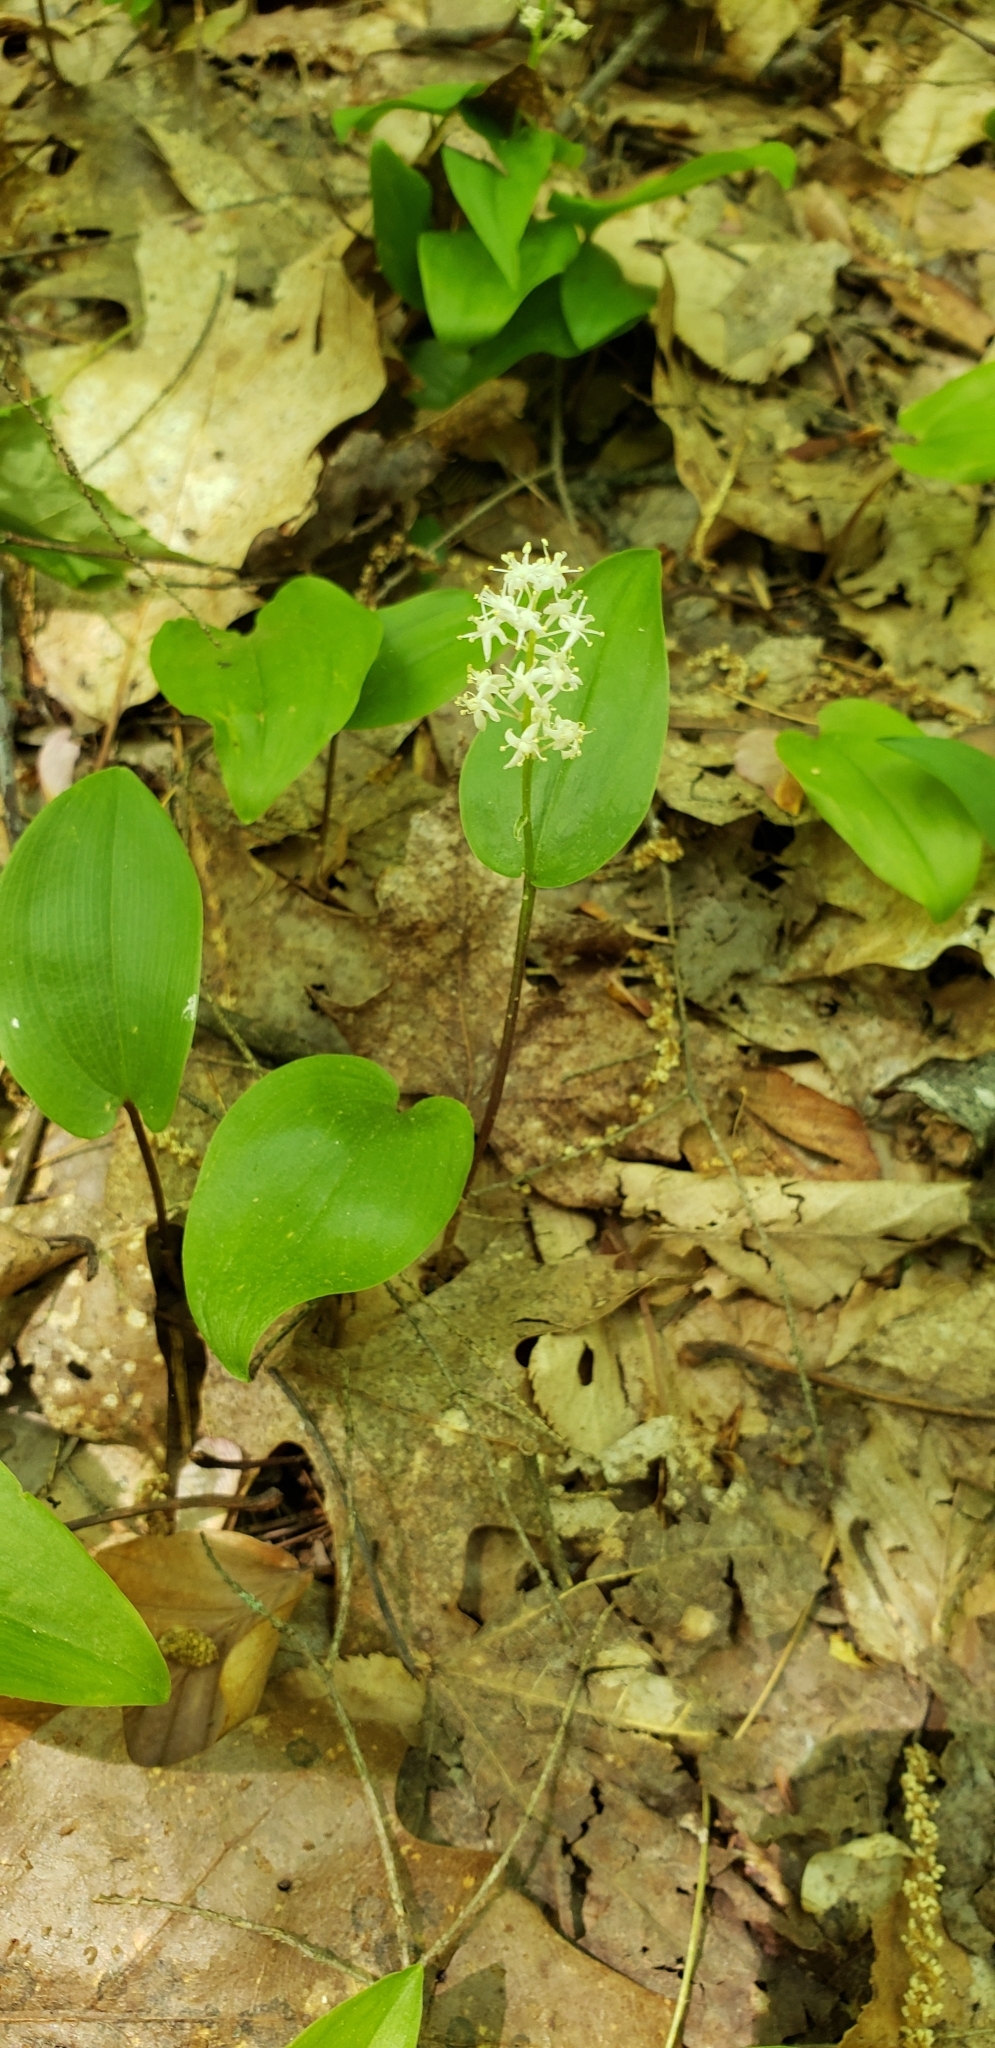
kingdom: Plantae
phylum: Tracheophyta
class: Liliopsida
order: Asparagales
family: Asparagaceae
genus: Maianthemum
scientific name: Maianthemum canadense
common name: False lily-of-the-valley
